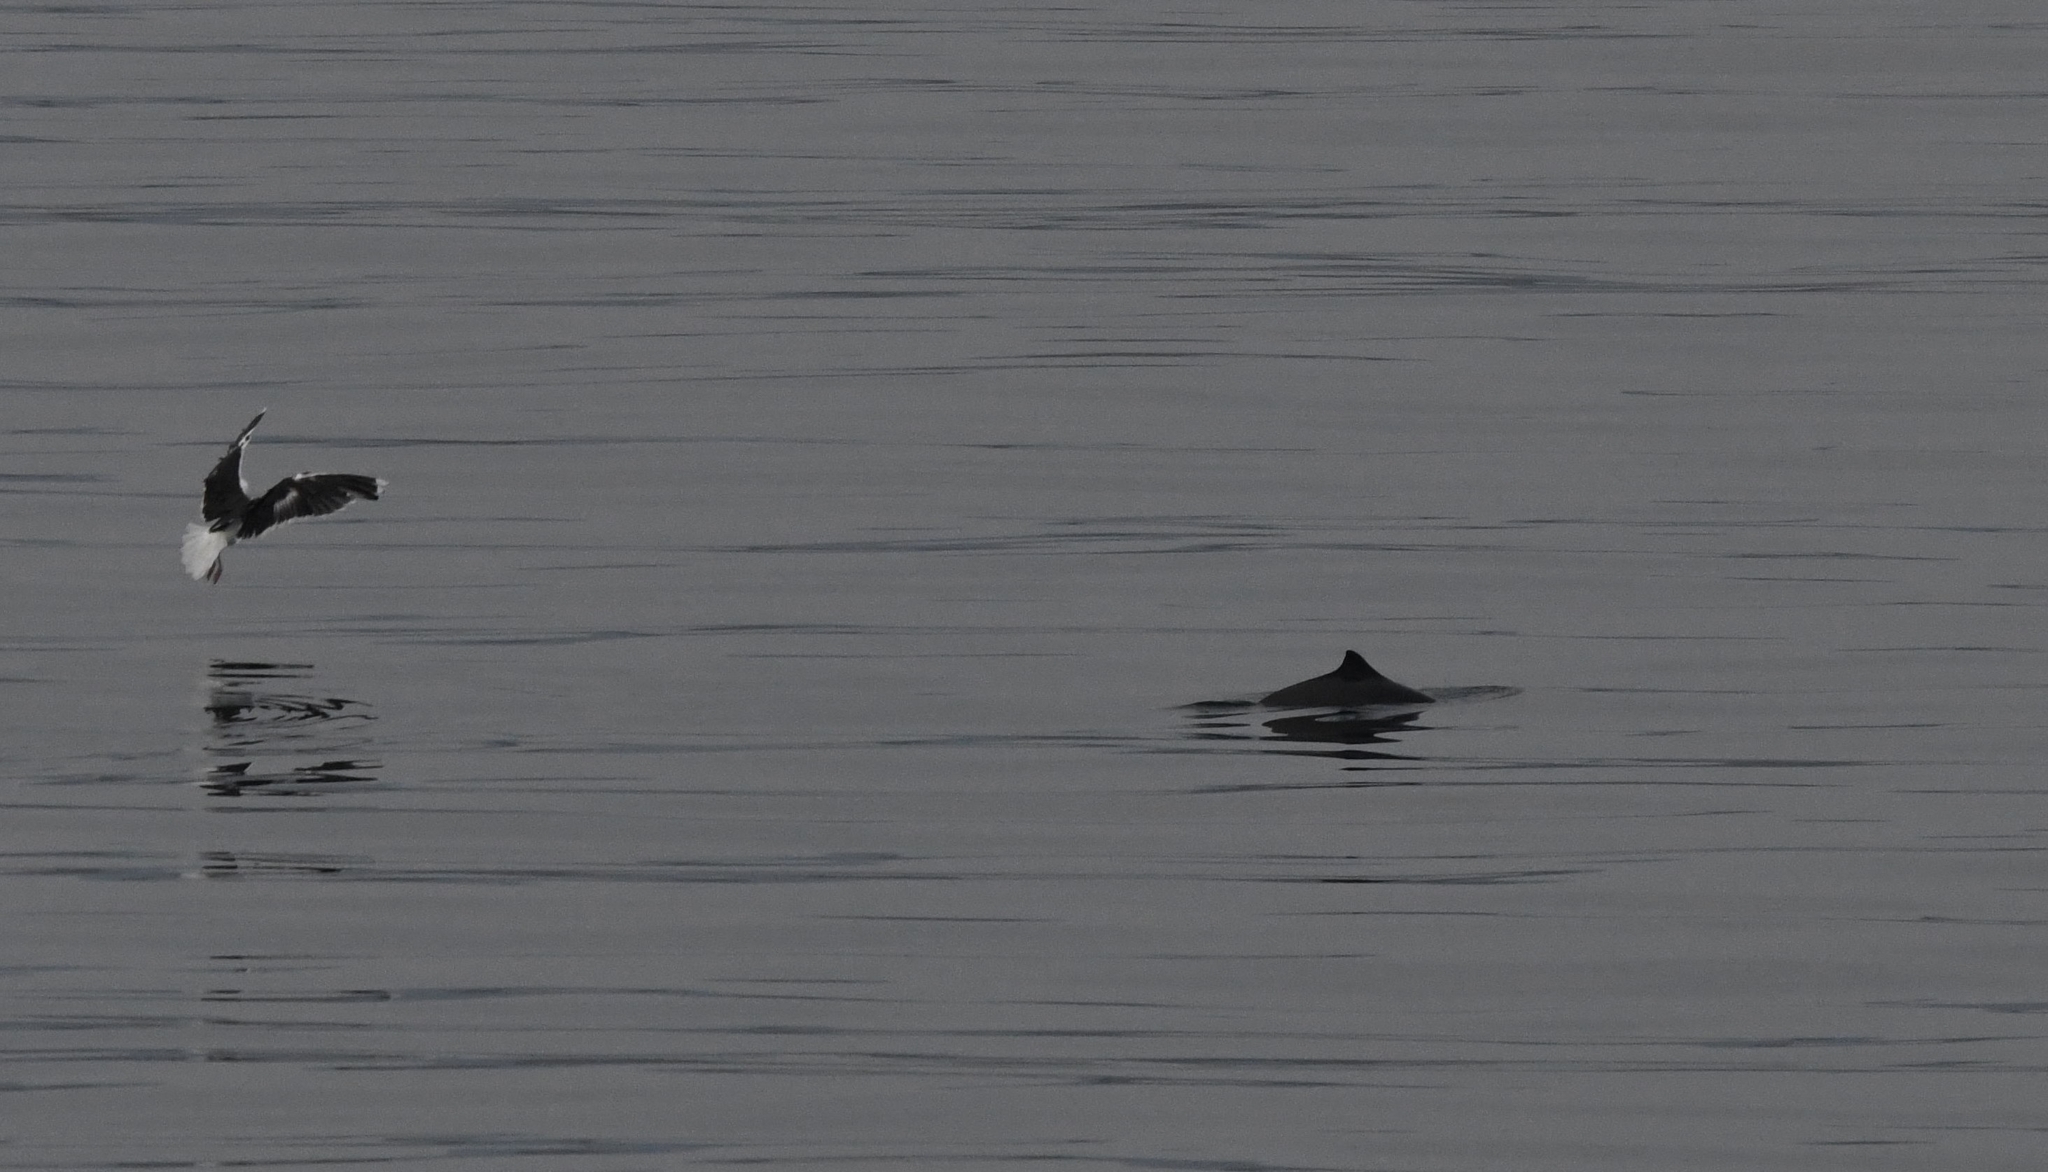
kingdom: Animalia
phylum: Chordata
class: Mammalia
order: Cetacea
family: Phocoenidae
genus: Phocoena
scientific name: Phocoena phocoena
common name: Harbor porpoise
